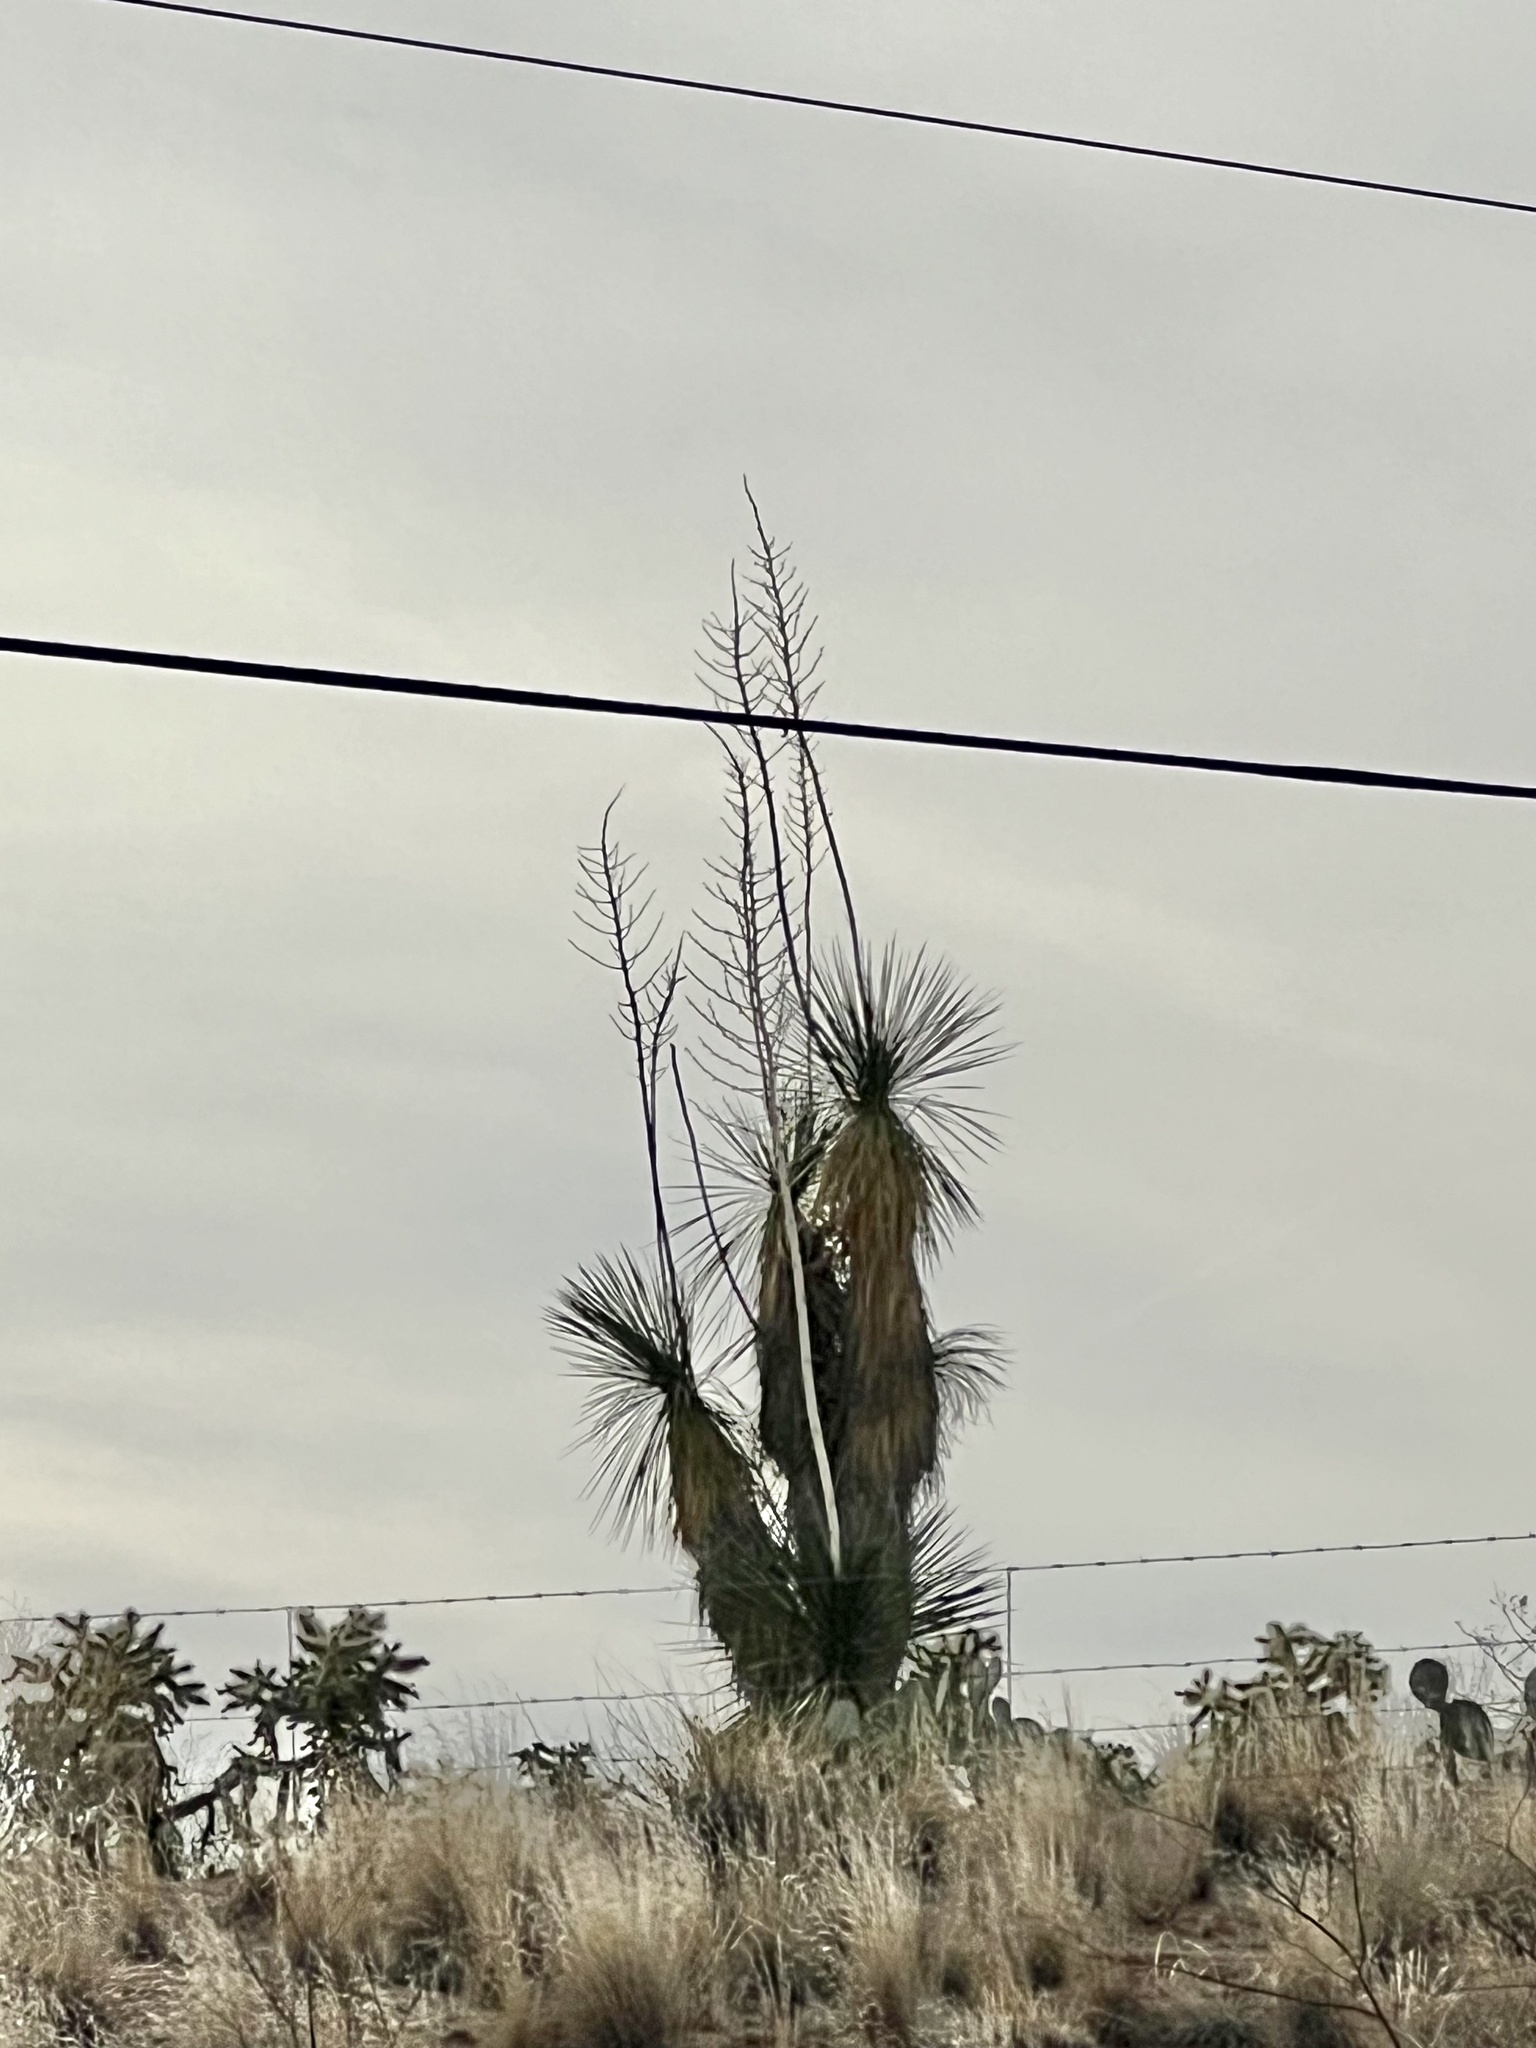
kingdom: Plantae
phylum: Tracheophyta
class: Liliopsida
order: Asparagales
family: Asparagaceae
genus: Yucca
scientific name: Yucca elata
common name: Palmella
